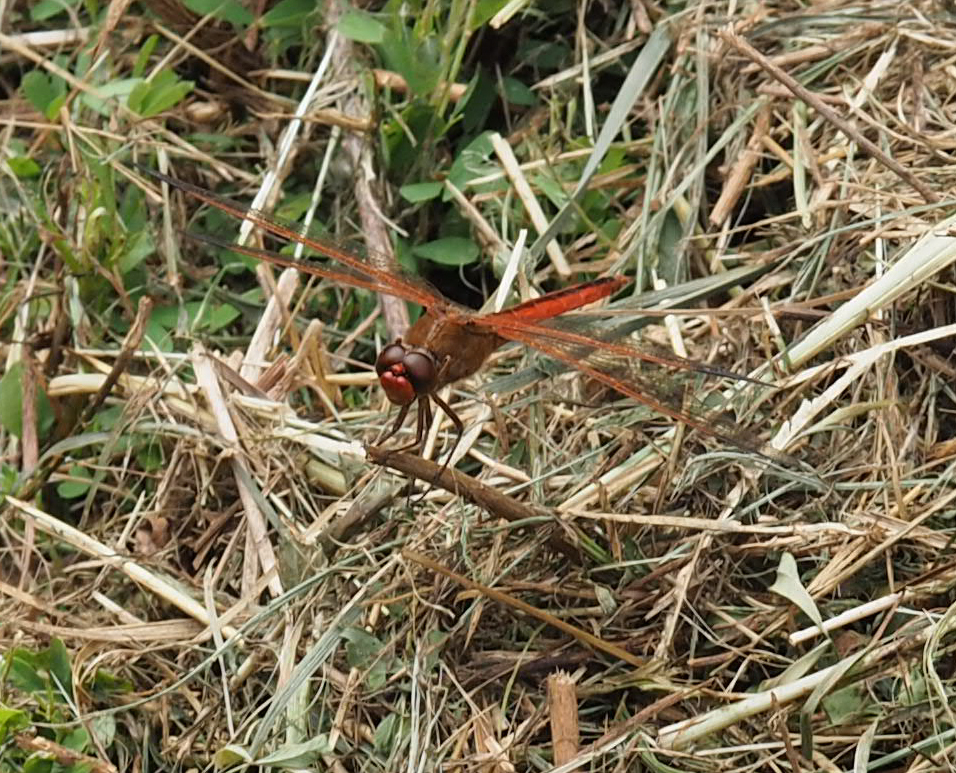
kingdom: Animalia
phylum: Arthropoda
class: Insecta
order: Odonata
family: Libellulidae
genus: Libellula
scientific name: Libellula needhami
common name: Needham's skimmer
